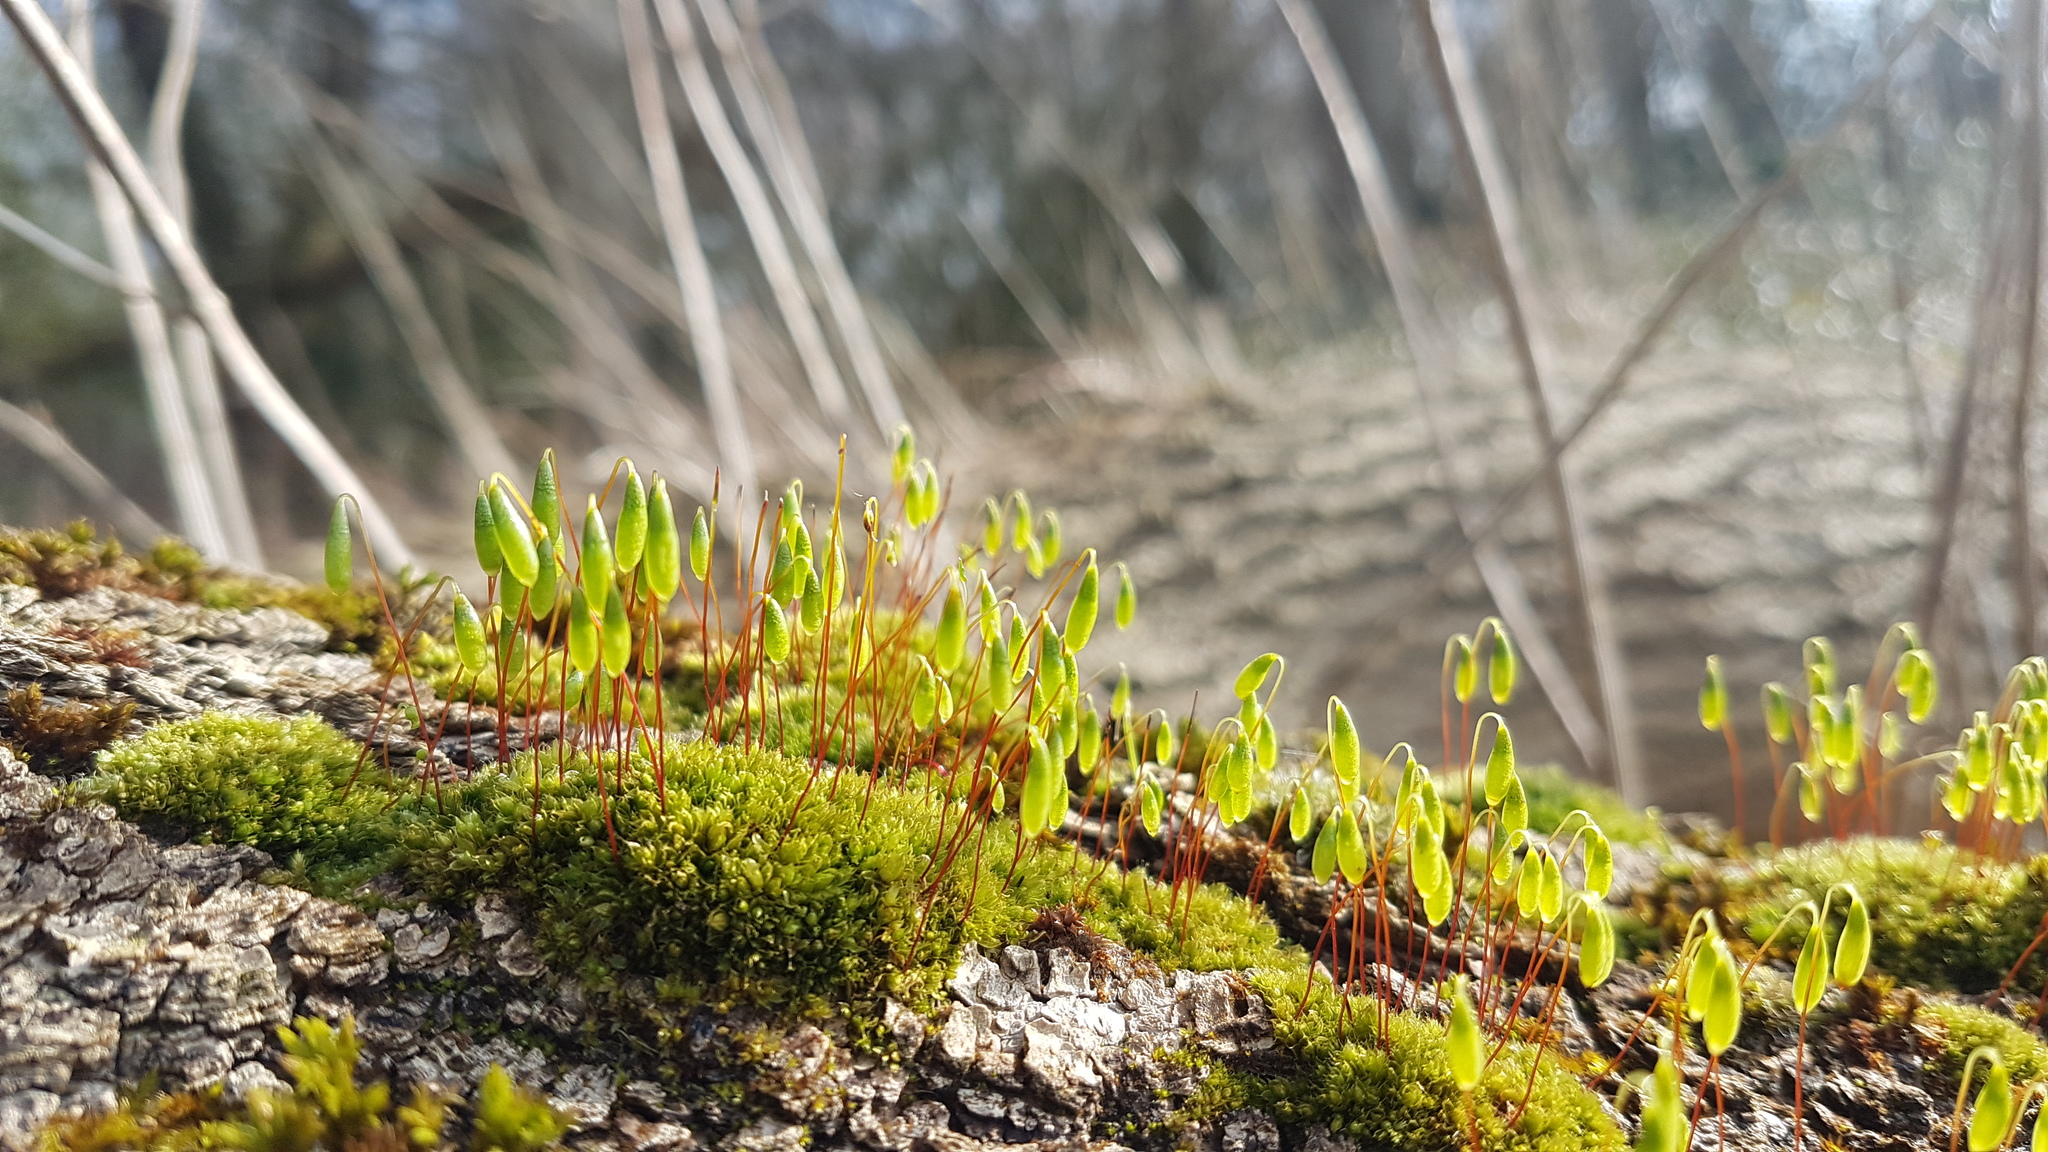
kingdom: Plantae
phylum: Bryophyta
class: Bryopsida
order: Bryales
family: Bryaceae
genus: Rosulabryum
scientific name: Rosulabryum capillare
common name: Capillary thread-moss
